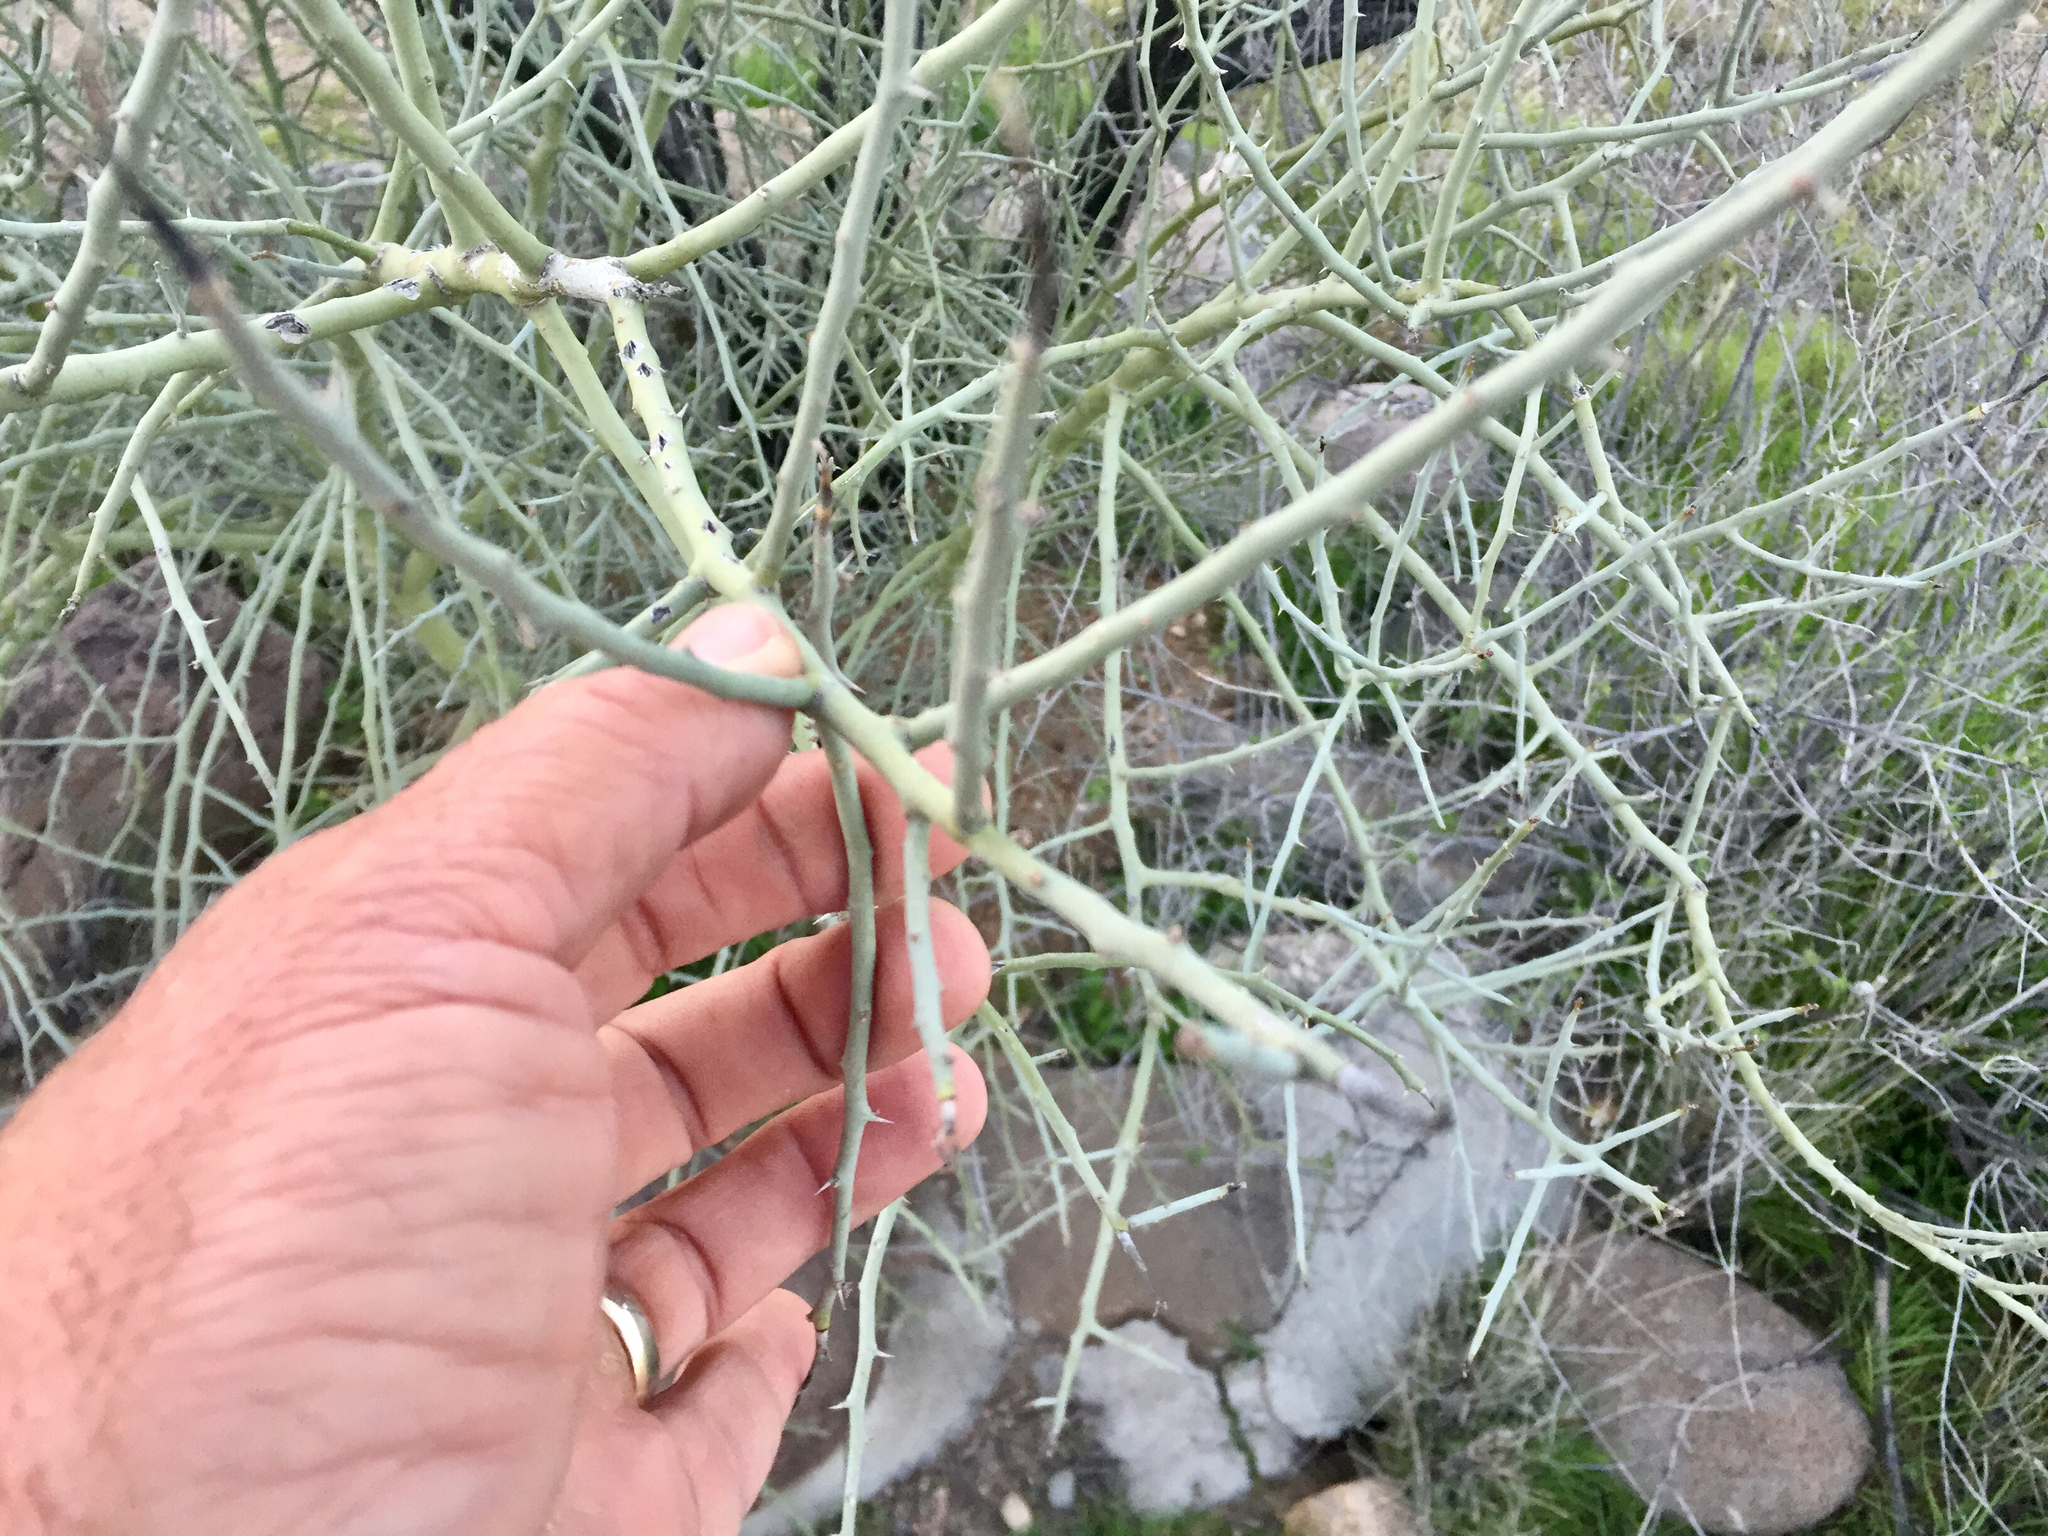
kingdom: Plantae
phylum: Tracheophyta
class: Magnoliopsida
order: Fabales
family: Fabaceae
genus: Parkinsonia
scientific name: Parkinsonia florida
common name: Blue paloverde
